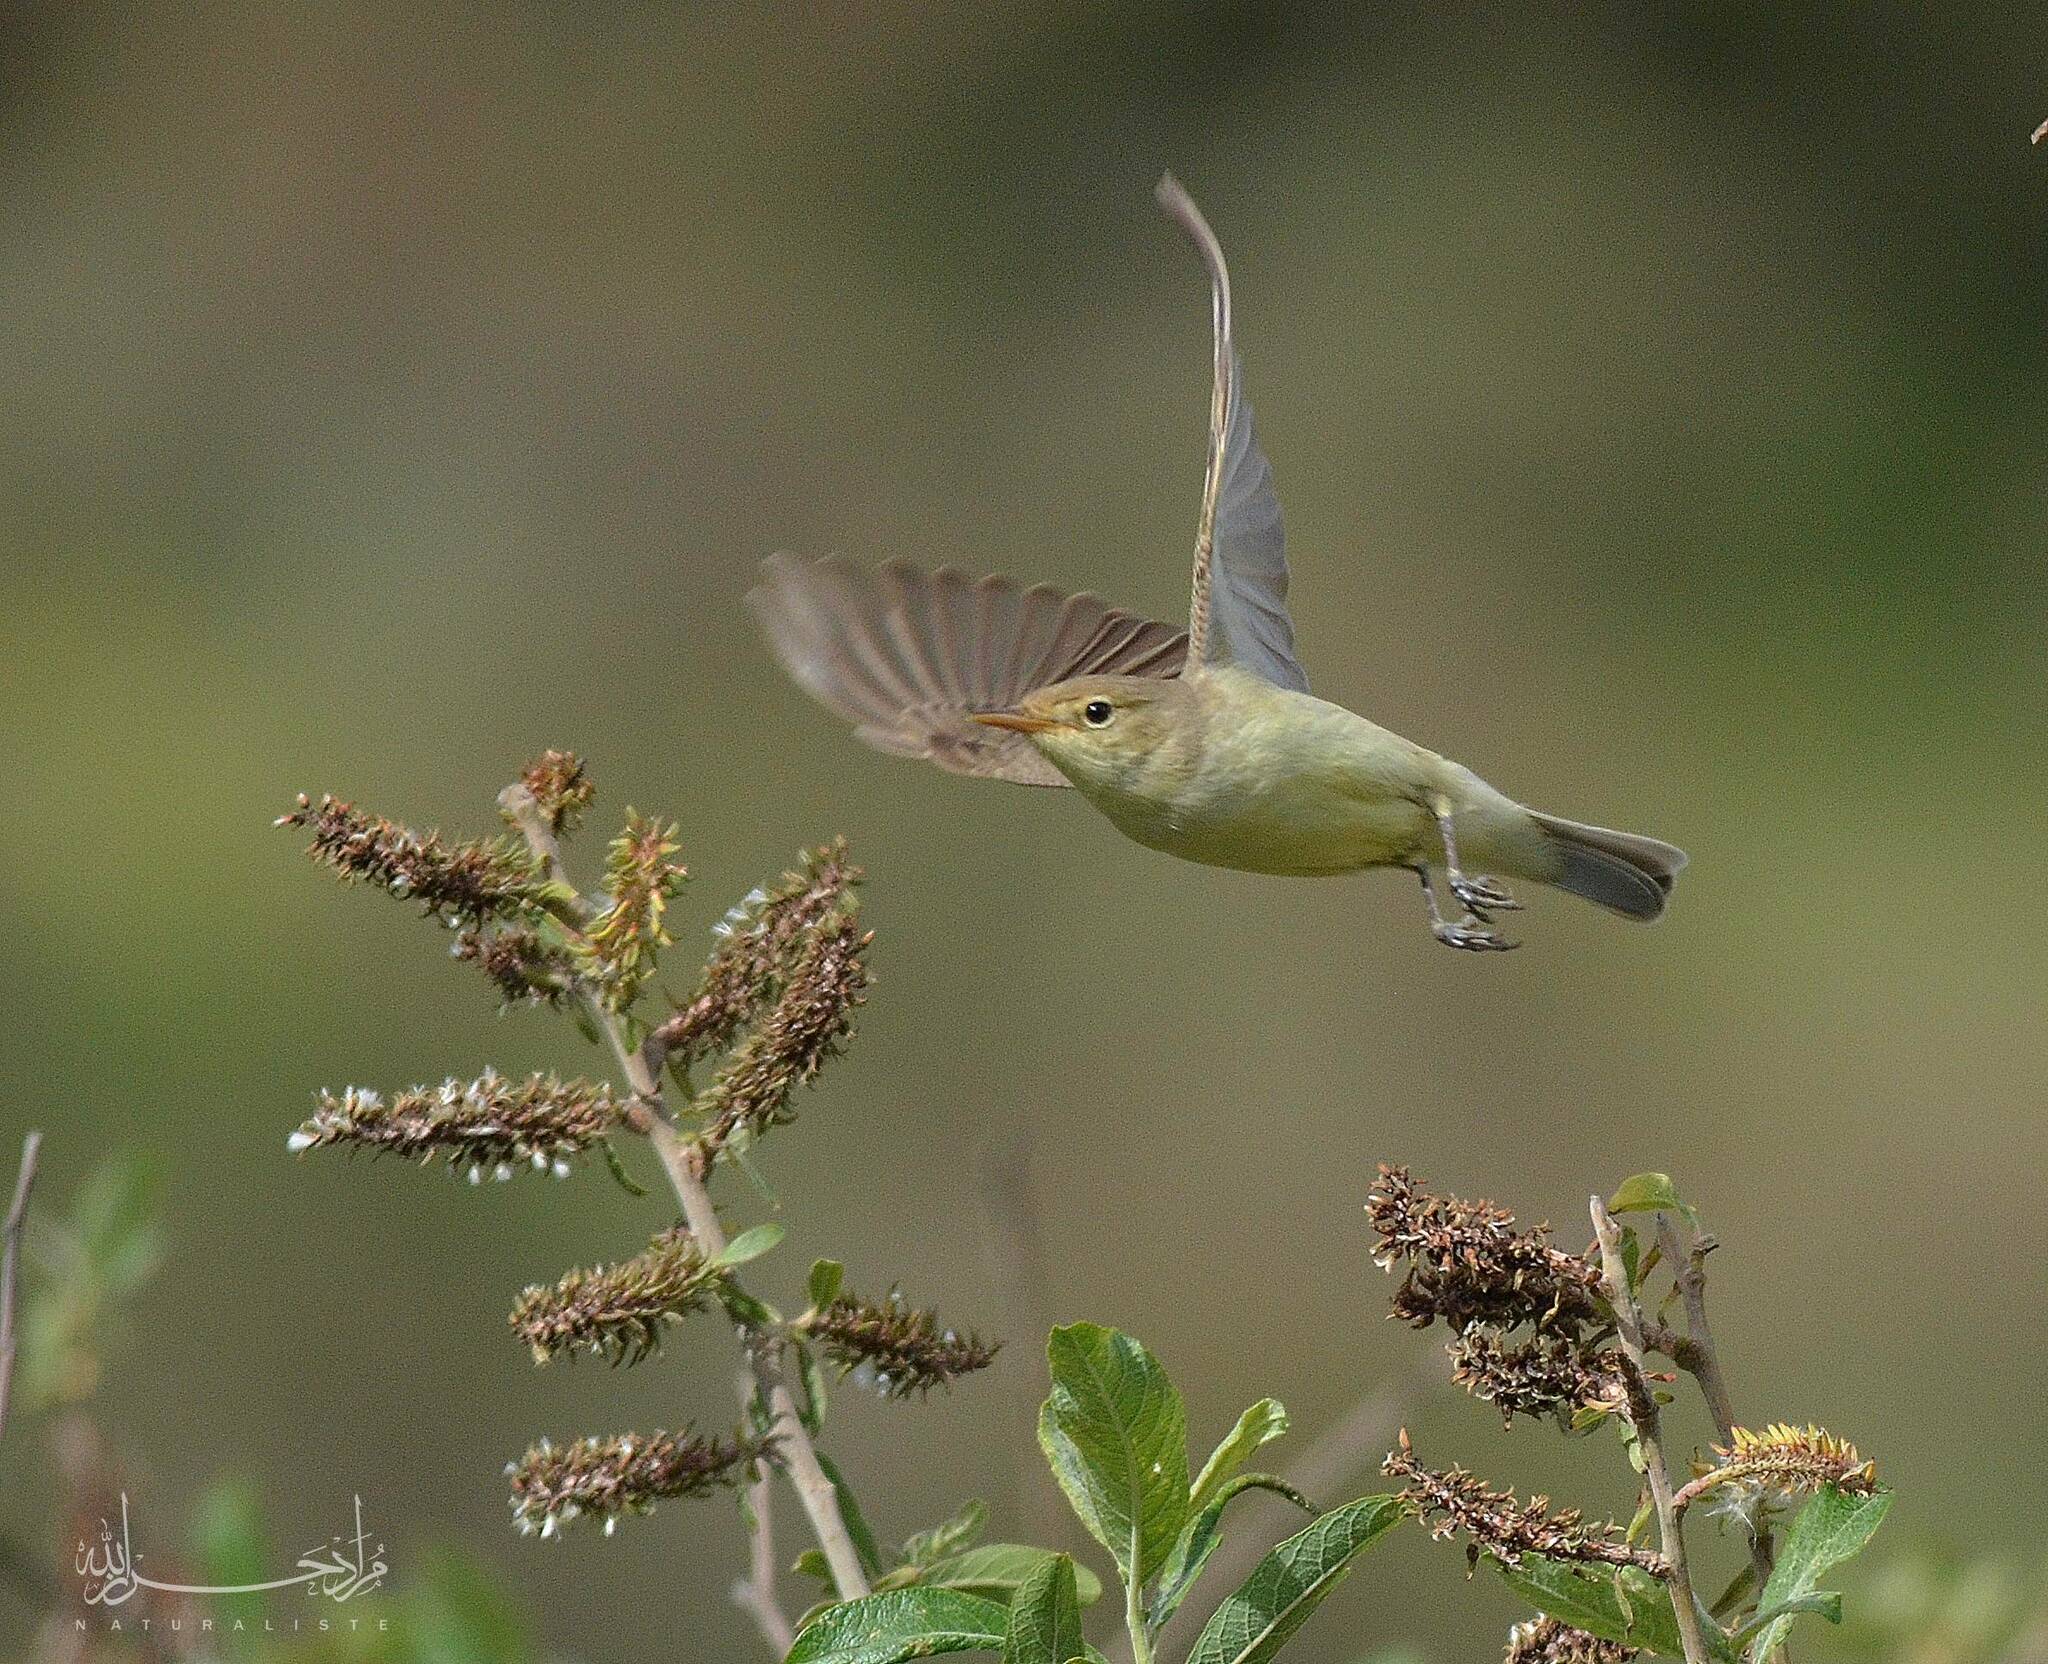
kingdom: Animalia
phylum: Chordata
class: Aves
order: Passeriformes
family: Acrocephalidae
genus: Hippolais
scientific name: Hippolais polyglotta
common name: Melodious warbler
